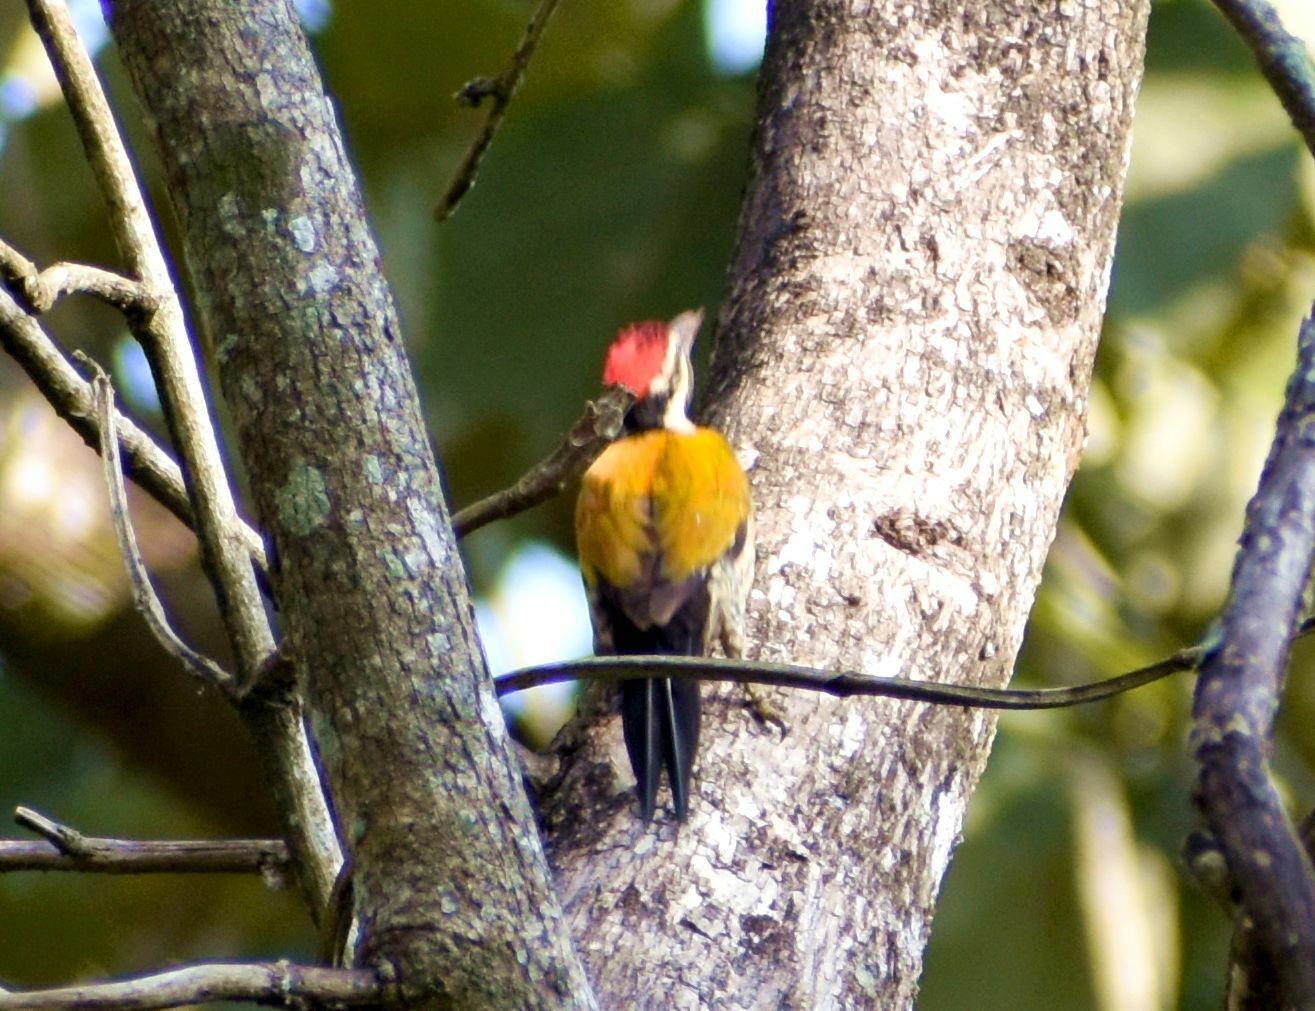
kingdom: Animalia
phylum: Chordata
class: Aves
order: Piciformes
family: Picidae
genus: Dinopium
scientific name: Dinopium benghalense
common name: Black-rumped flameback
